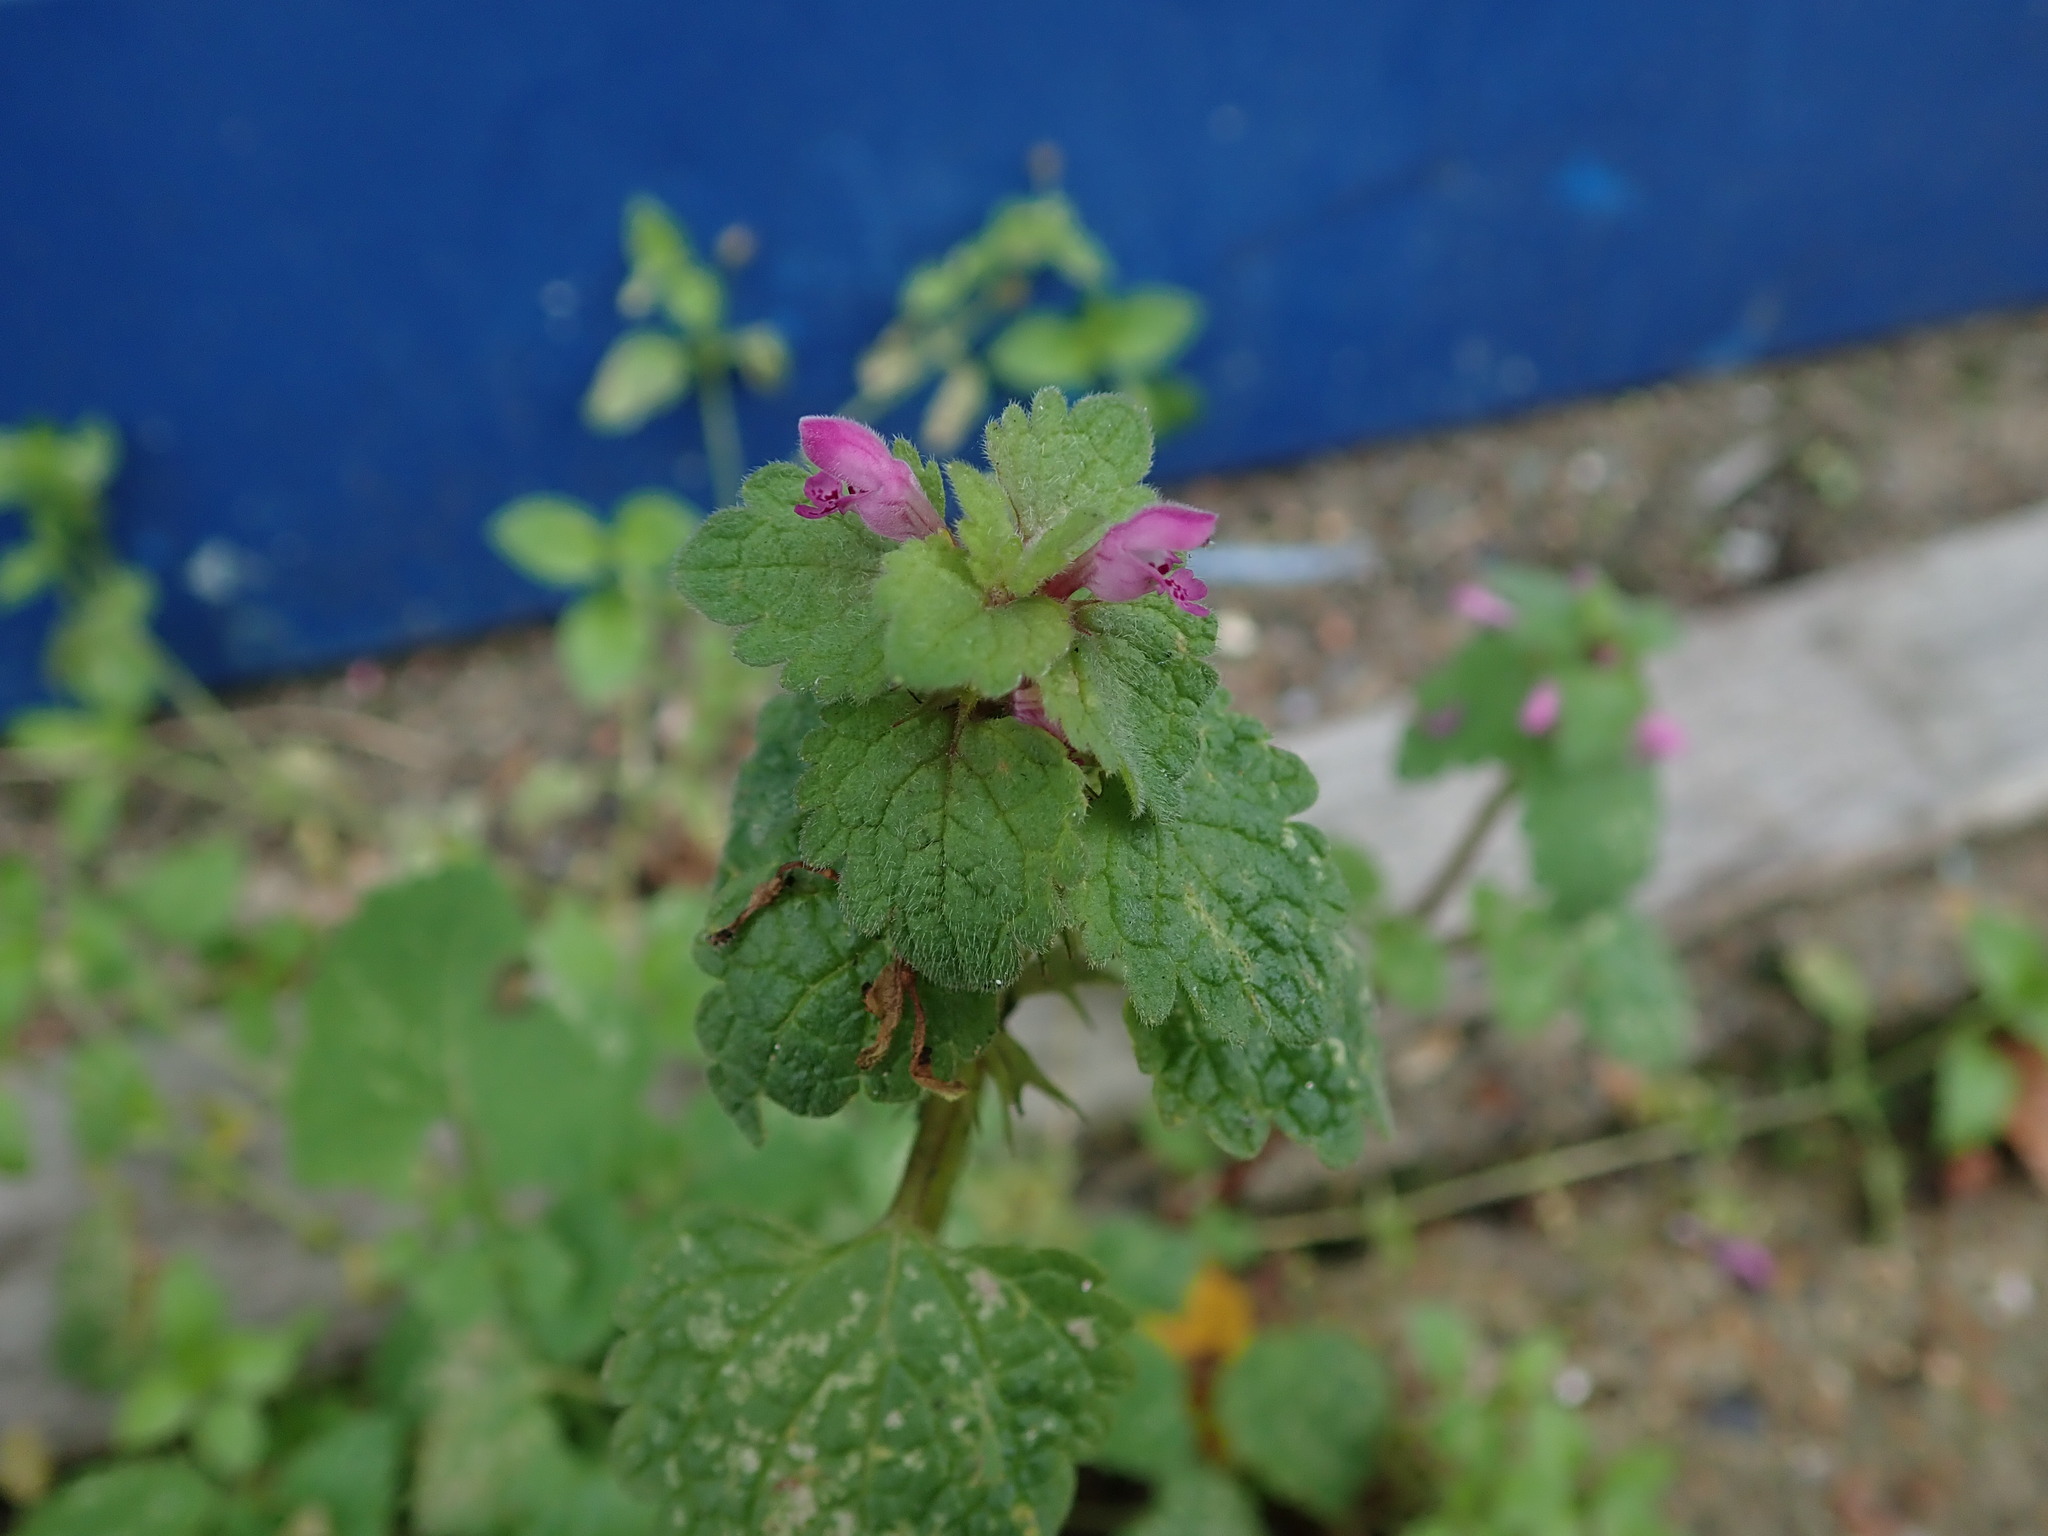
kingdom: Plantae
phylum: Tracheophyta
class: Magnoliopsida
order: Lamiales
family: Lamiaceae
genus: Lamium
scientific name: Lamium purpureum
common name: Red dead-nettle
